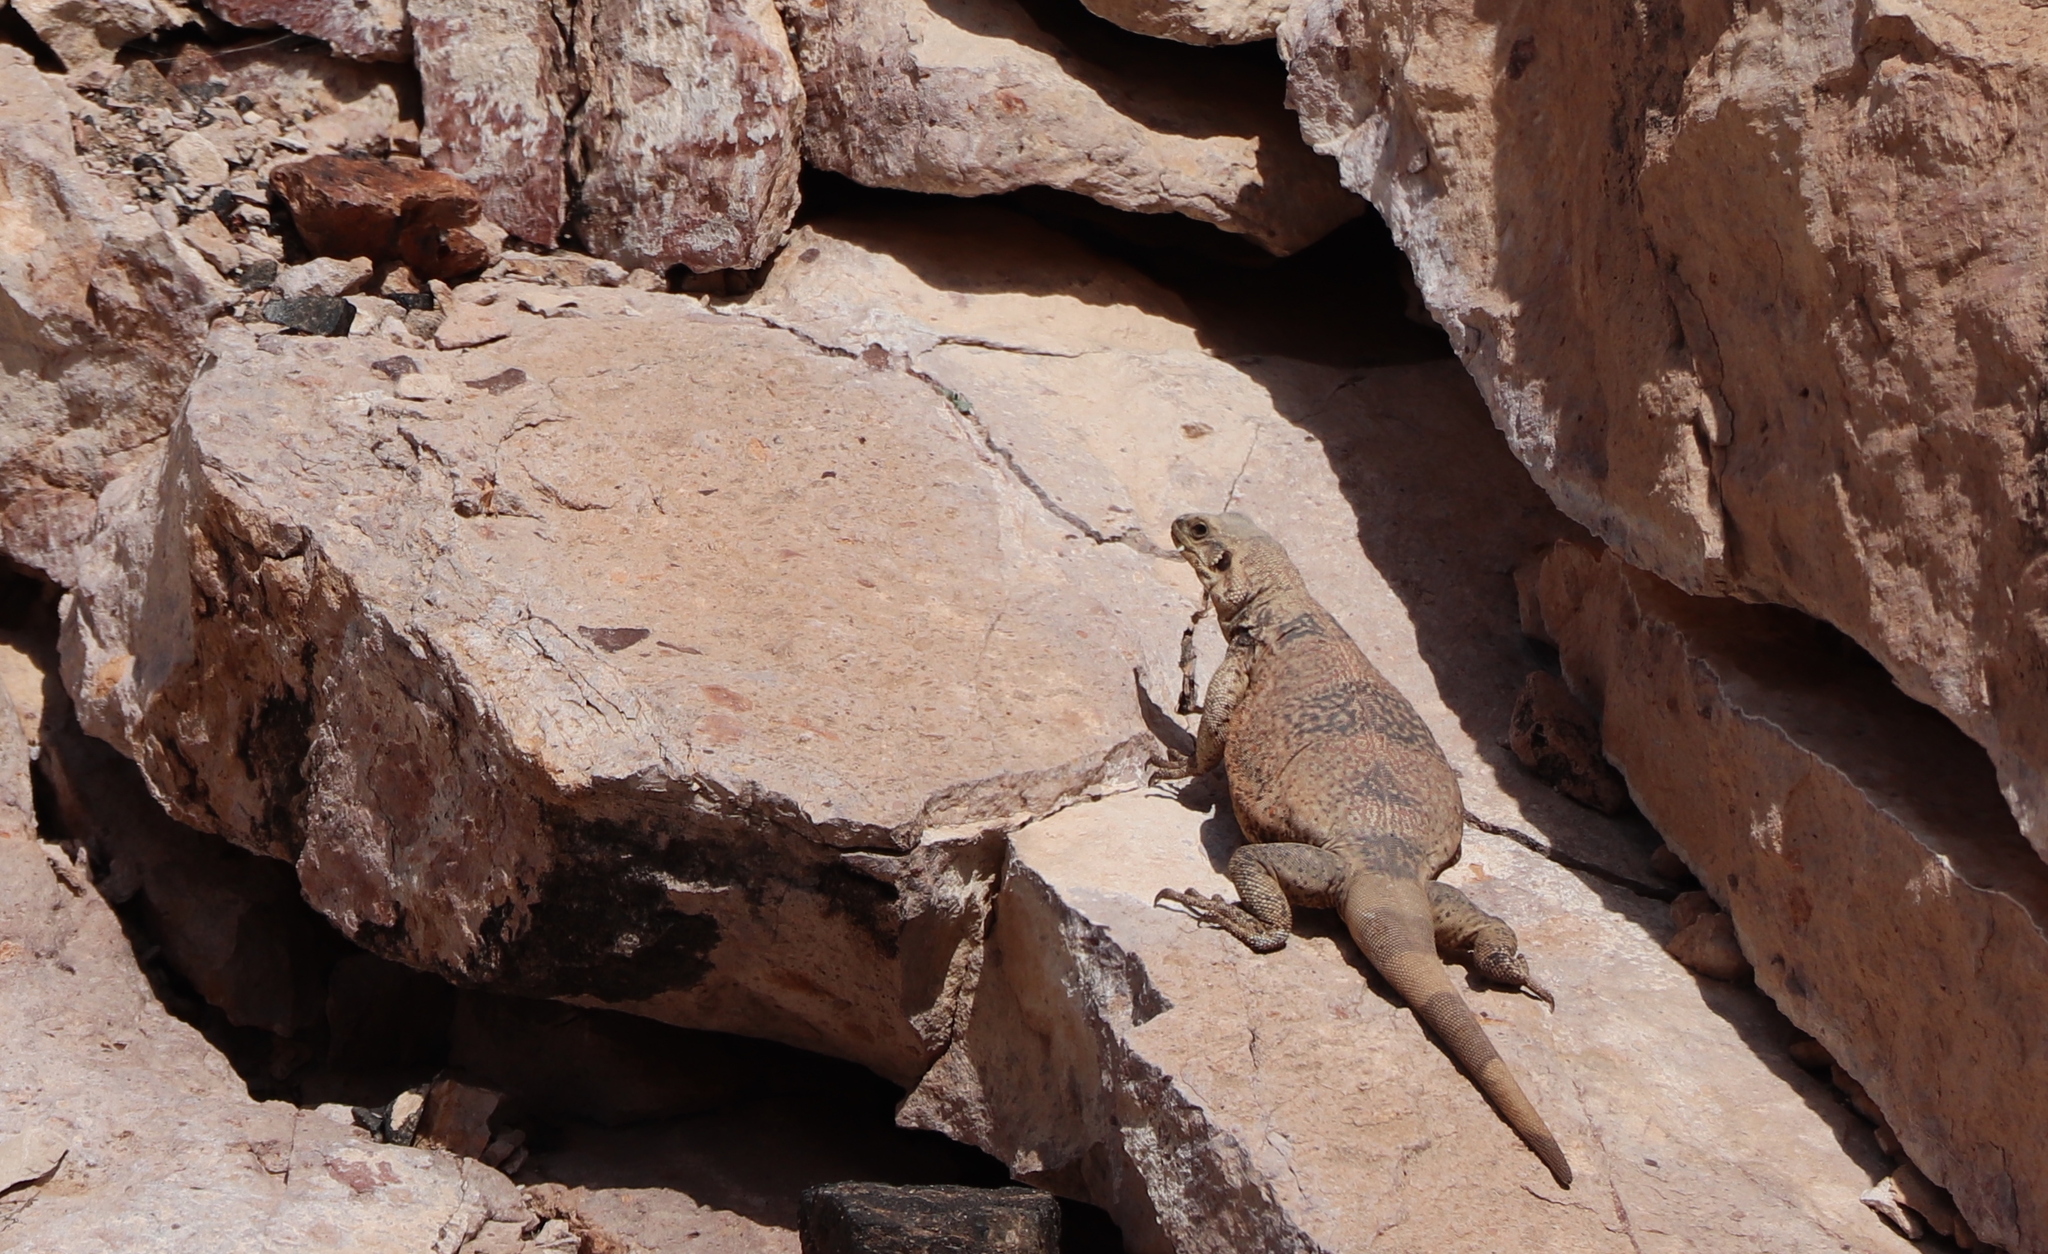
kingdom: Animalia
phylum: Chordata
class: Squamata
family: Iguanidae
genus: Sauromalus
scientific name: Sauromalus ater
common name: Northern chuckwalla
